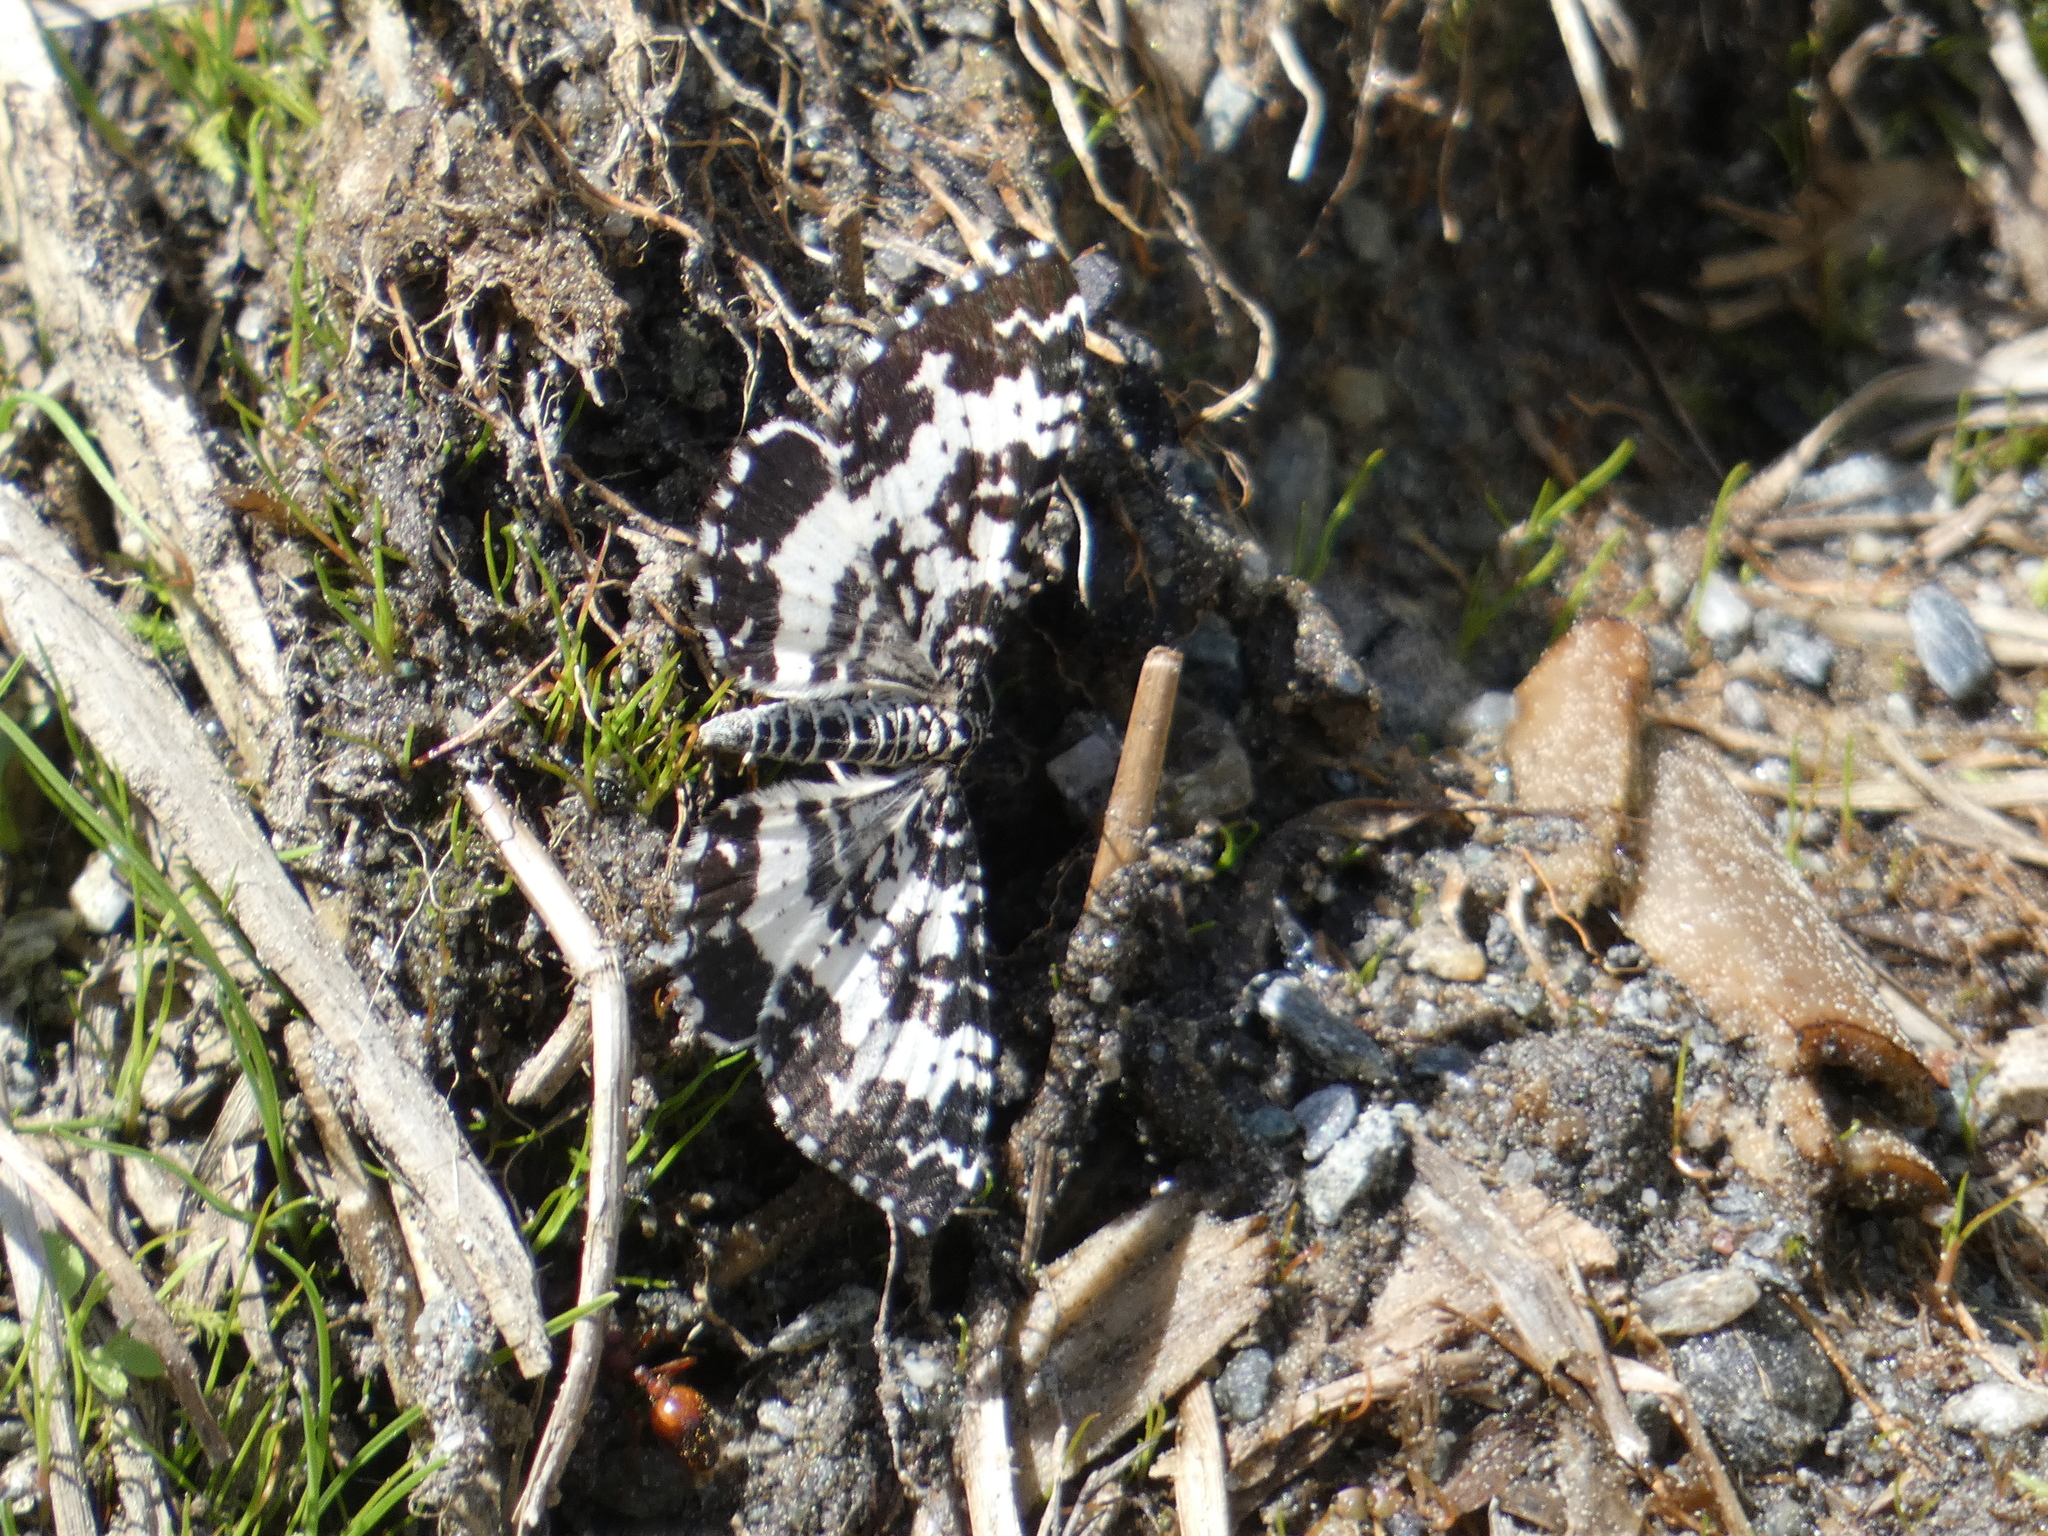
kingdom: Animalia
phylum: Arthropoda
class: Insecta
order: Lepidoptera
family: Geometridae
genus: Rheumaptera
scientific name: Rheumaptera hastata
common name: Argent & sable
